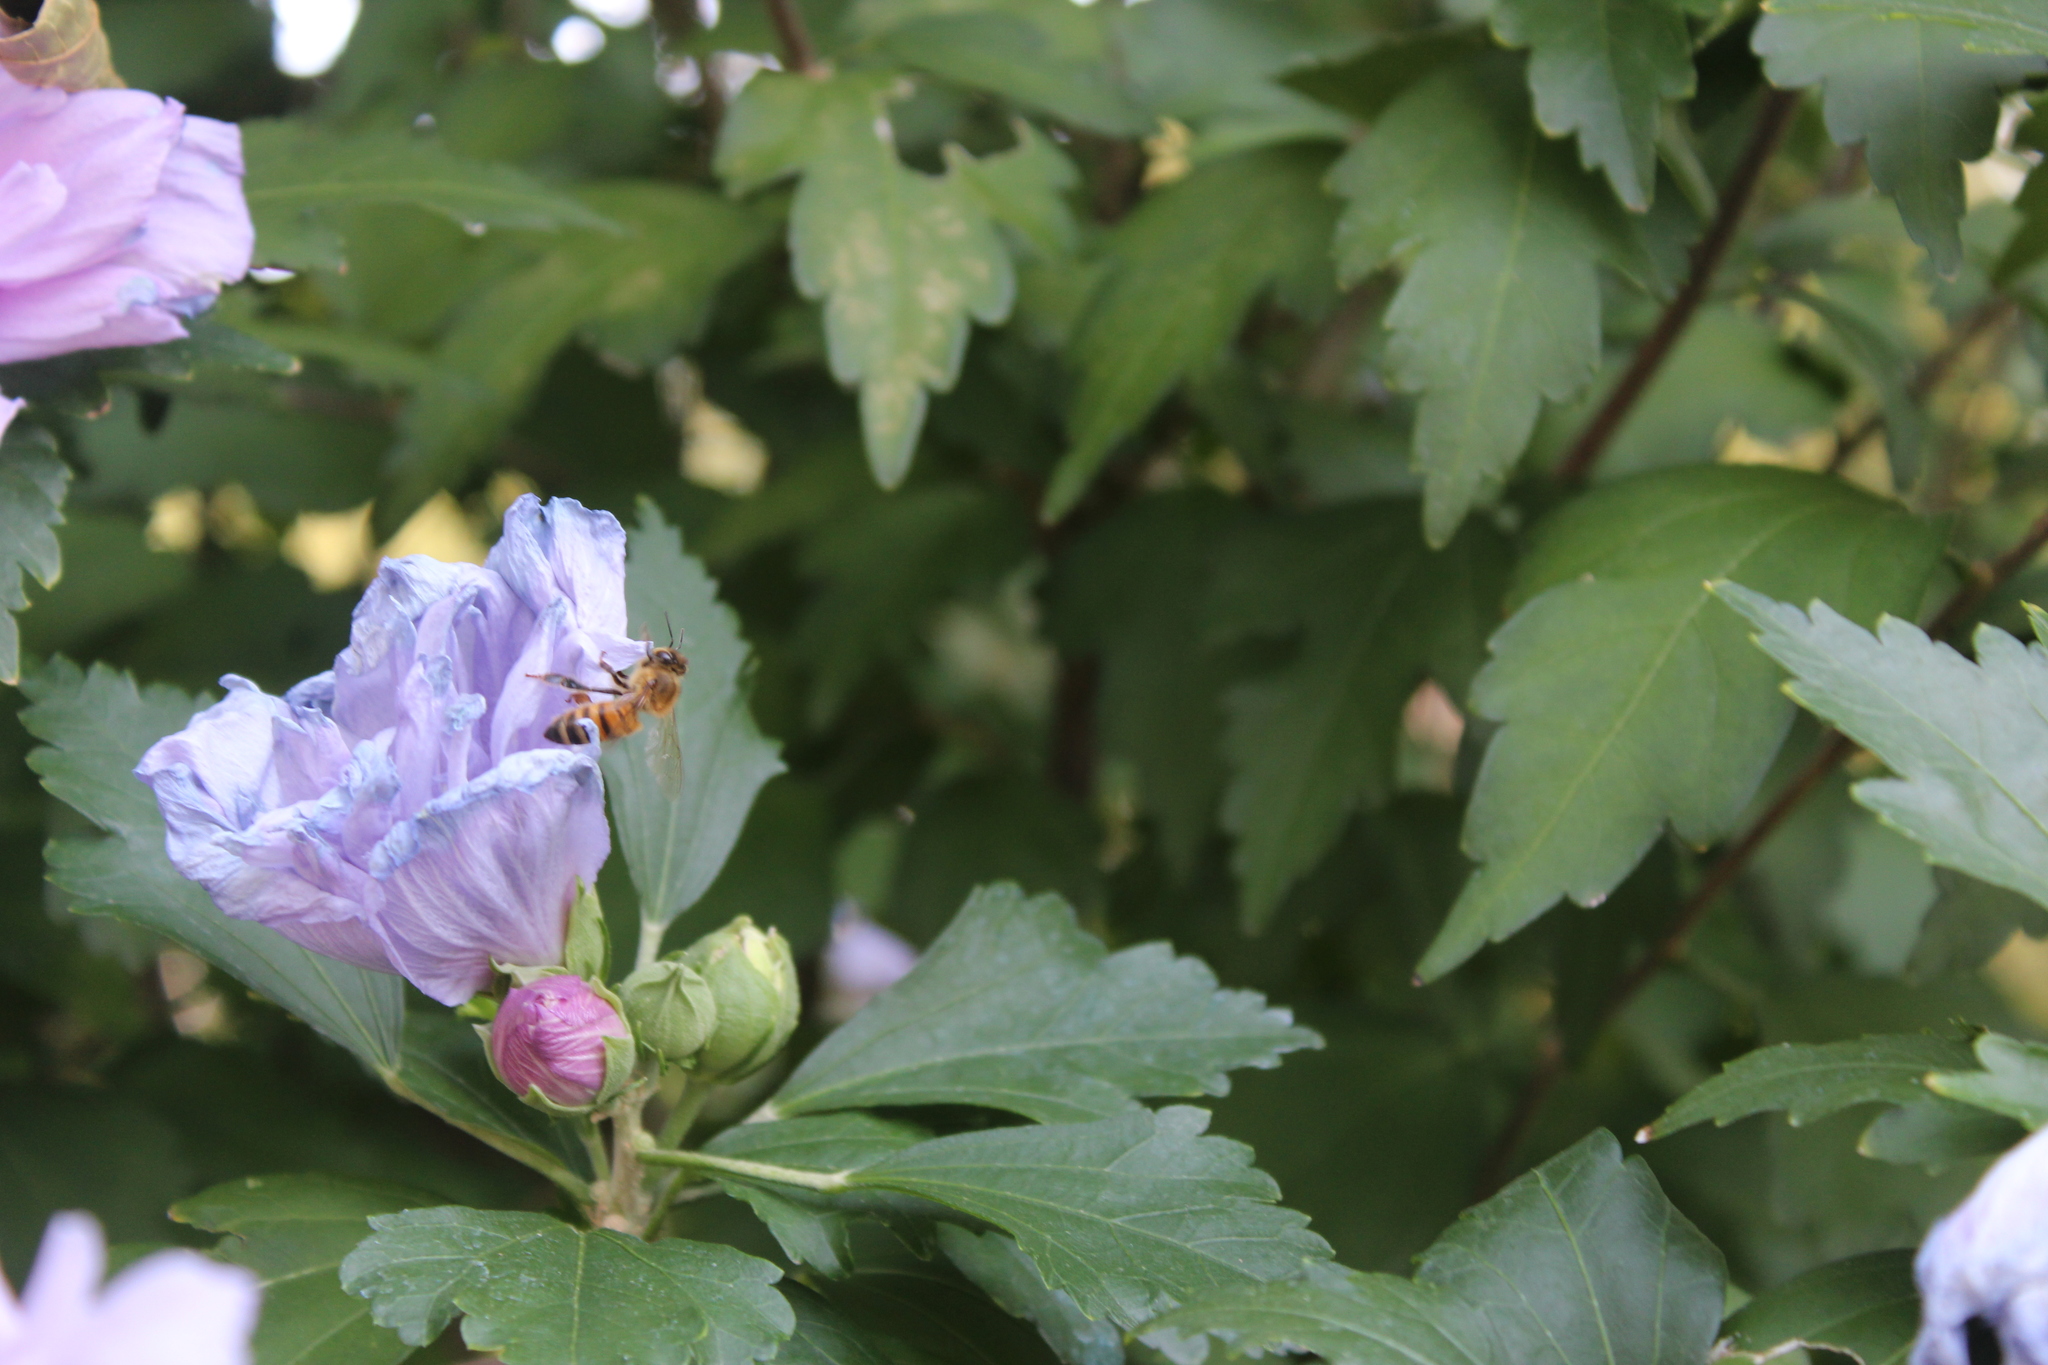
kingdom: Animalia
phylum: Arthropoda
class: Insecta
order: Hymenoptera
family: Apidae
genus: Apis
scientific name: Apis mellifera
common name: Honey bee
